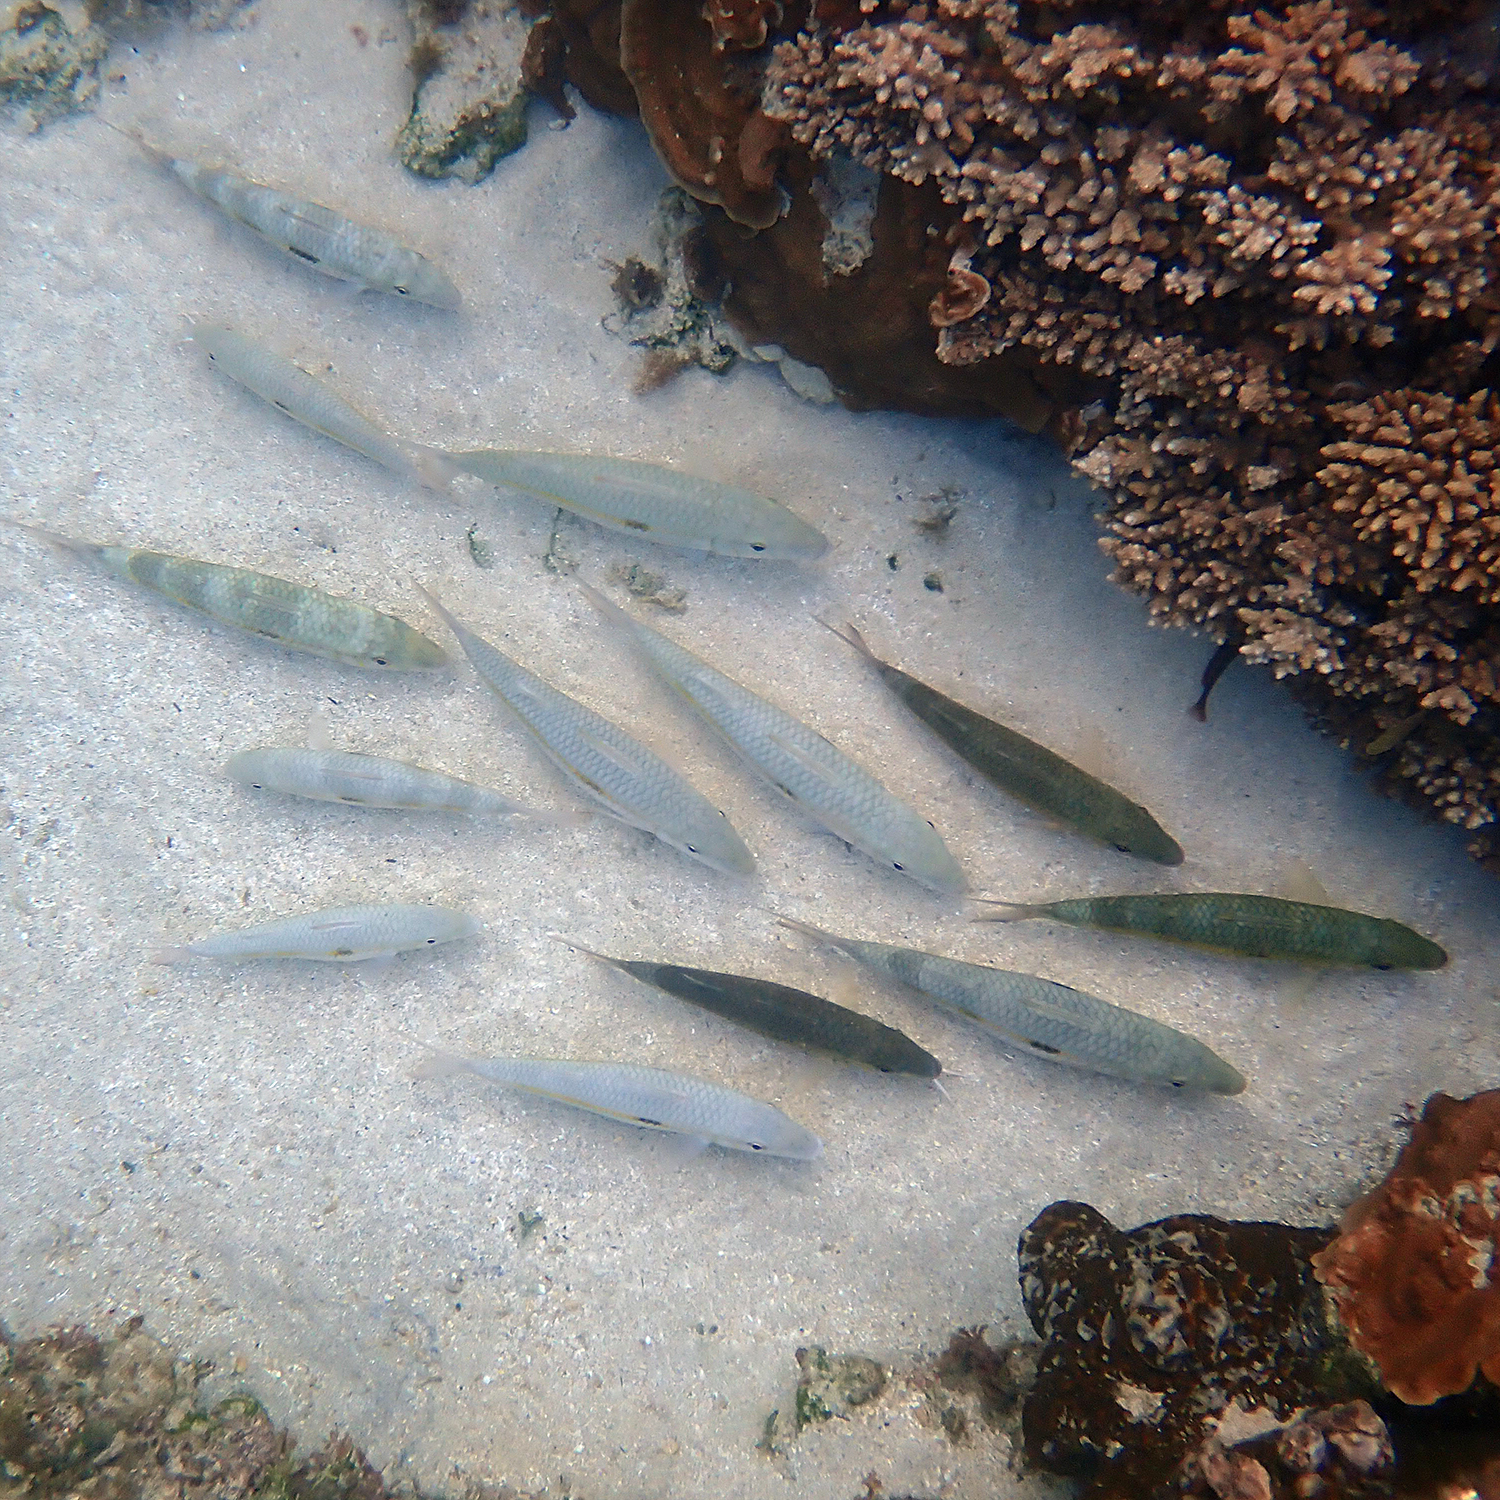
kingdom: Animalia
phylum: Chordata
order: Perciformes
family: Mullidae
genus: Mulloidichthys
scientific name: Mulloidichthys flavolineatus
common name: Yellowstripe goatfish
